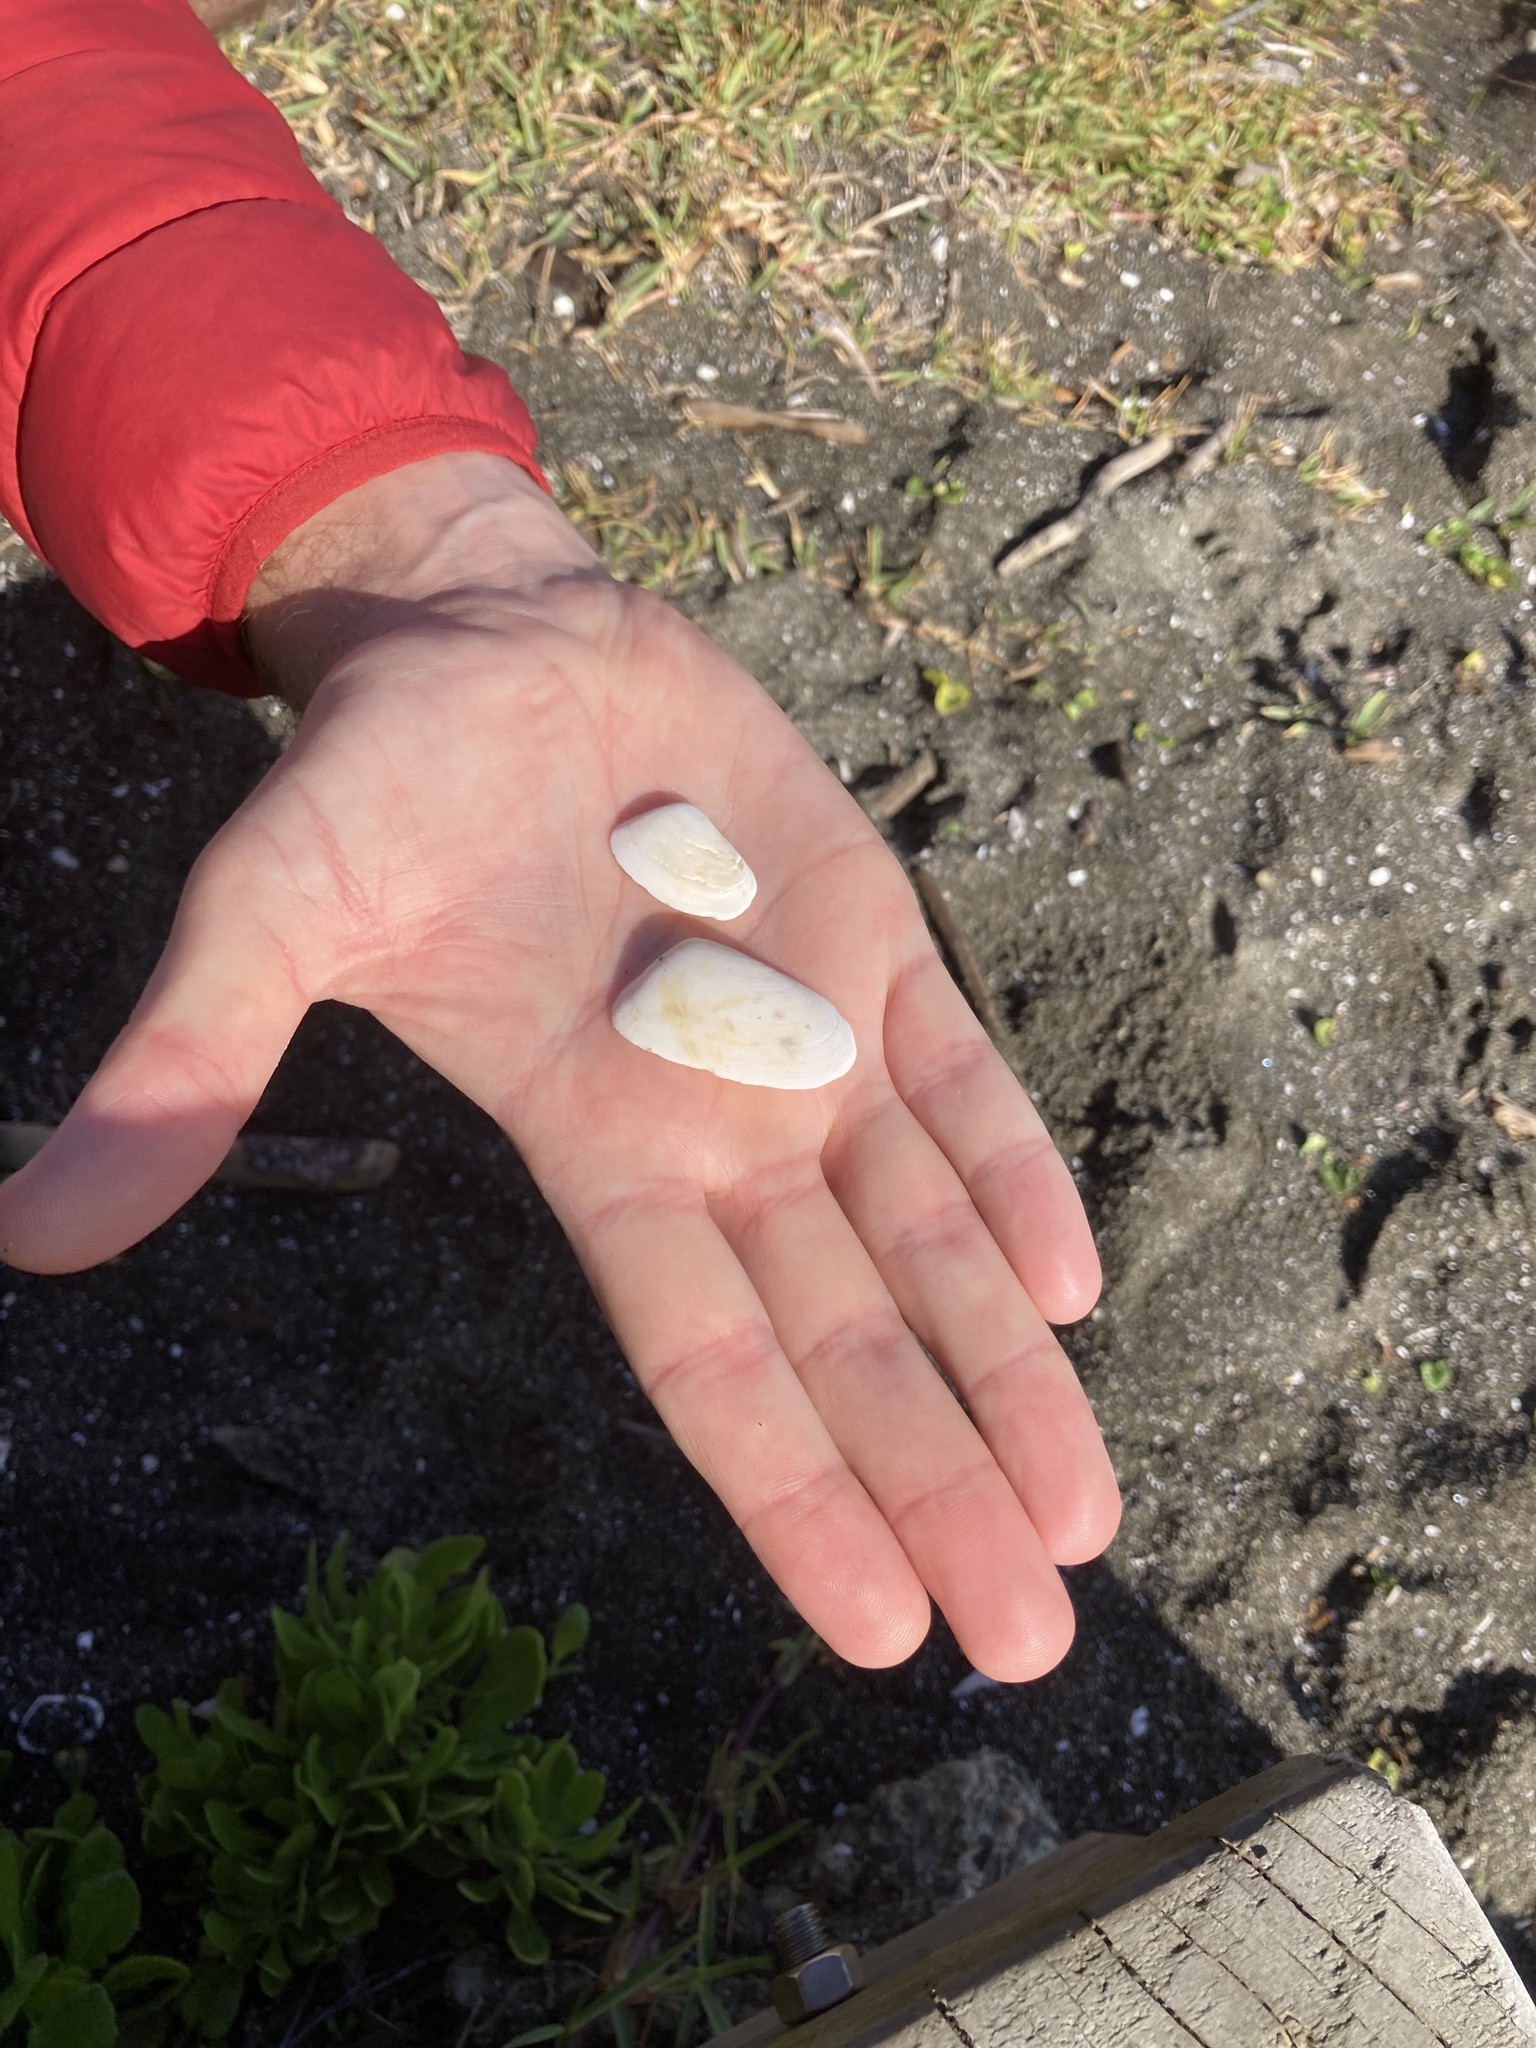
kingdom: Animalia
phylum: Mollusca
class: Bivalvia
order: Venerida
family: Mesodesmatidae
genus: Paphies
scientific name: Paphies subtriangulata
